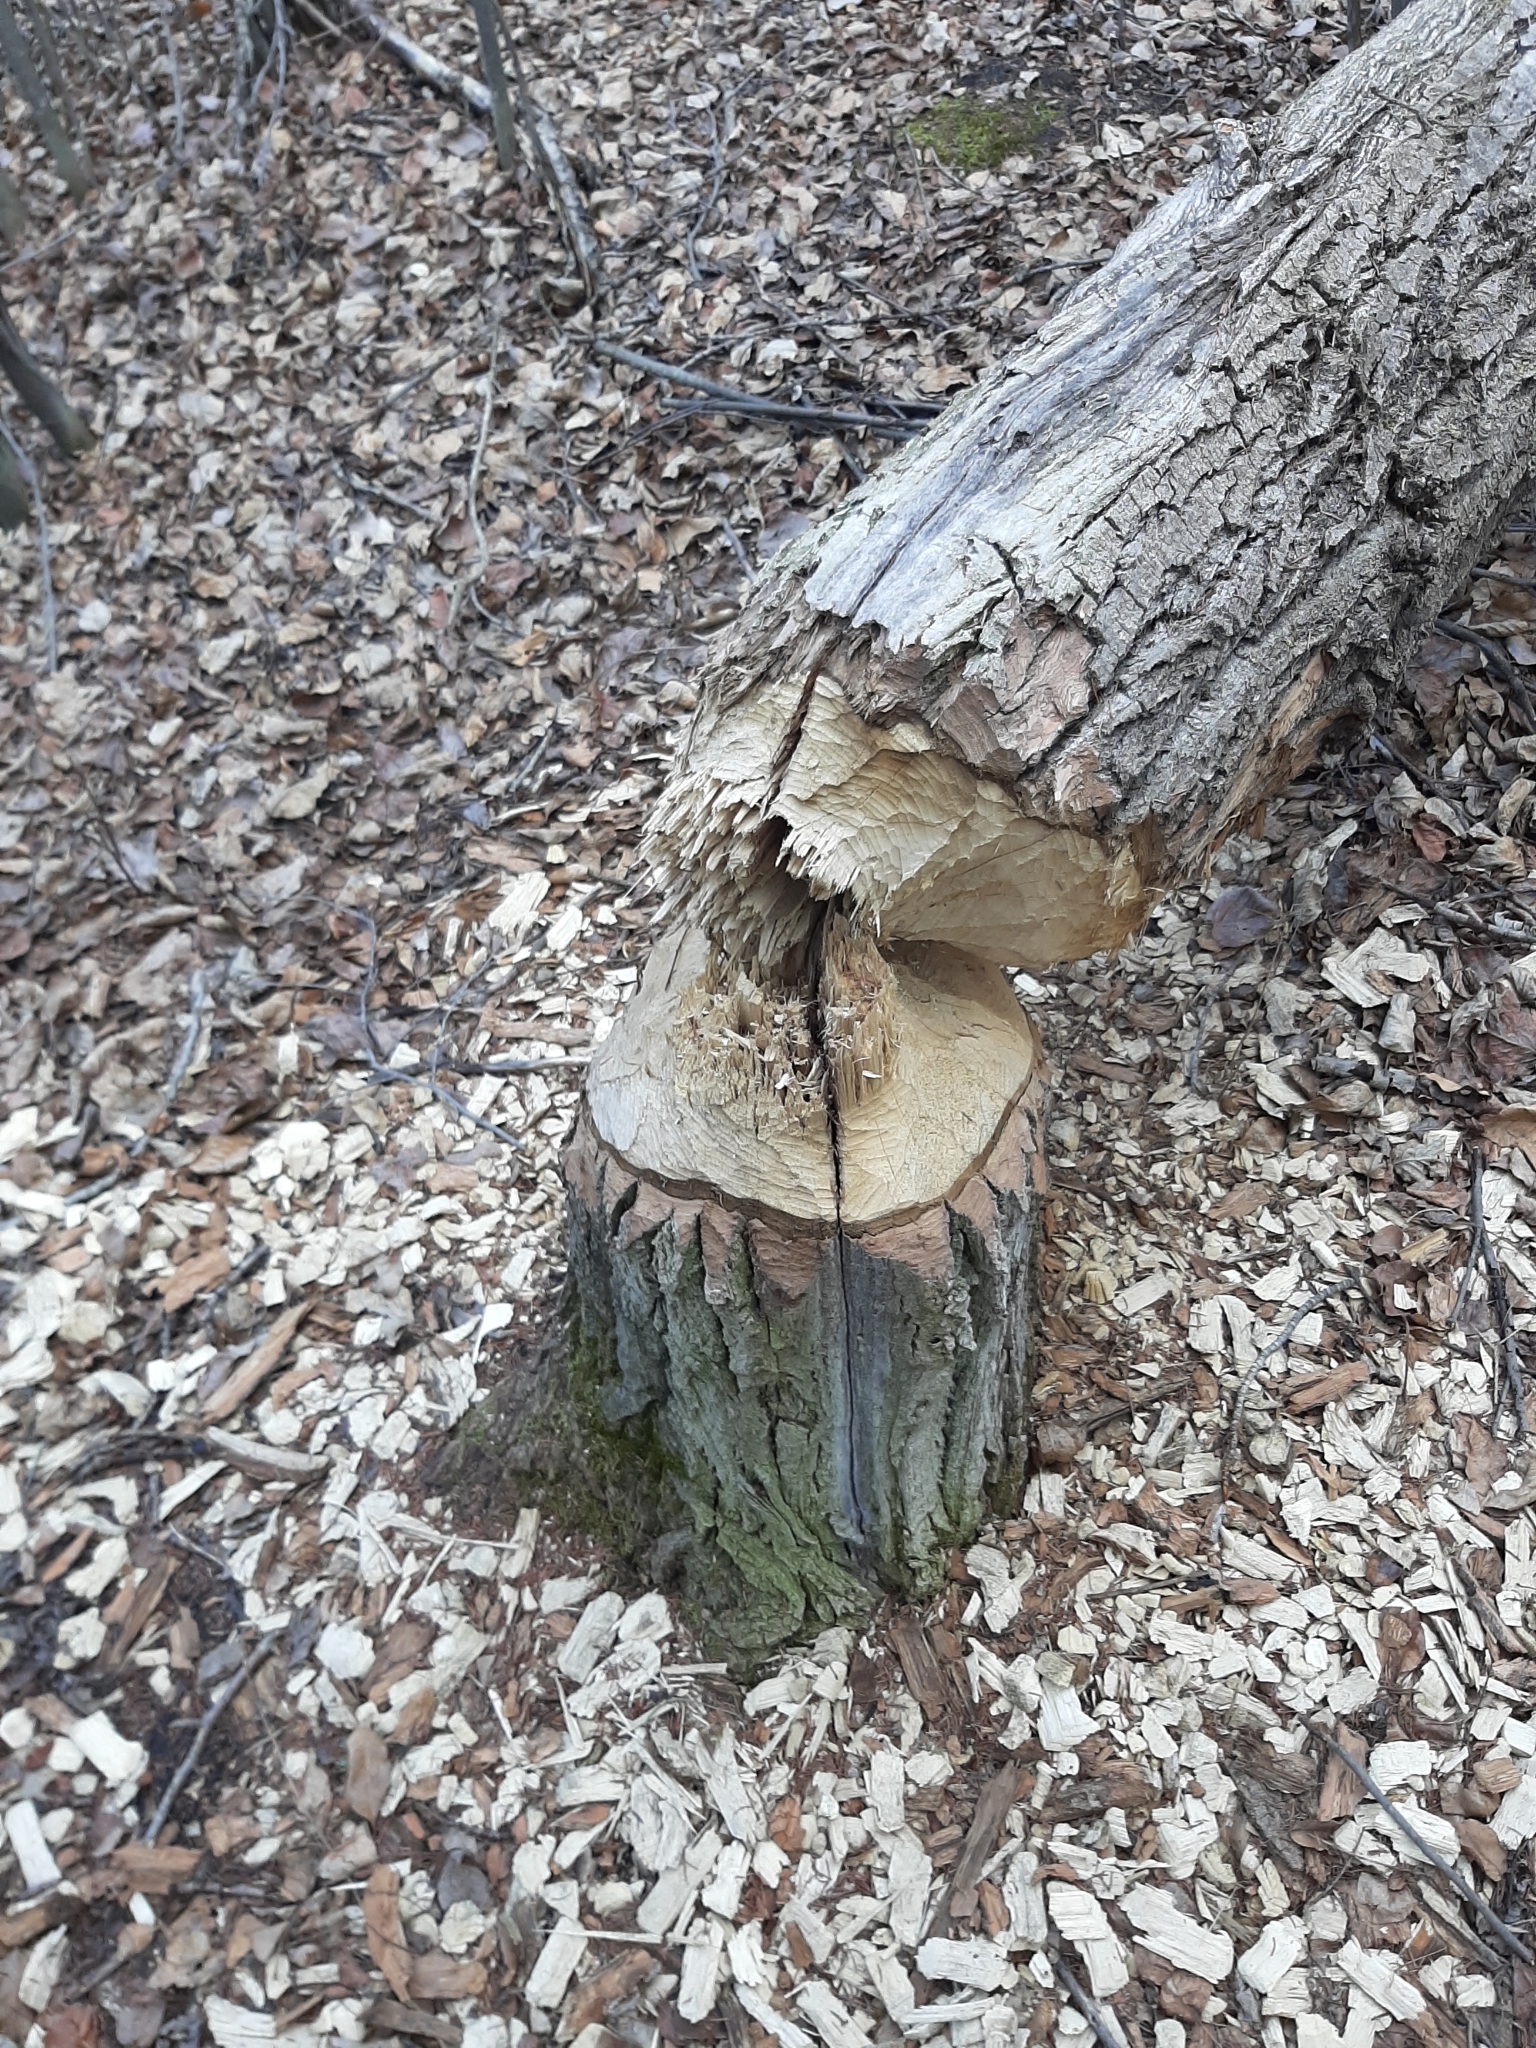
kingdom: Animalia
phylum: Chordata
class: Mammalia
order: Rodentia
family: Castoridae
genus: Castor
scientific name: Castor canadensis
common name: American beaver
